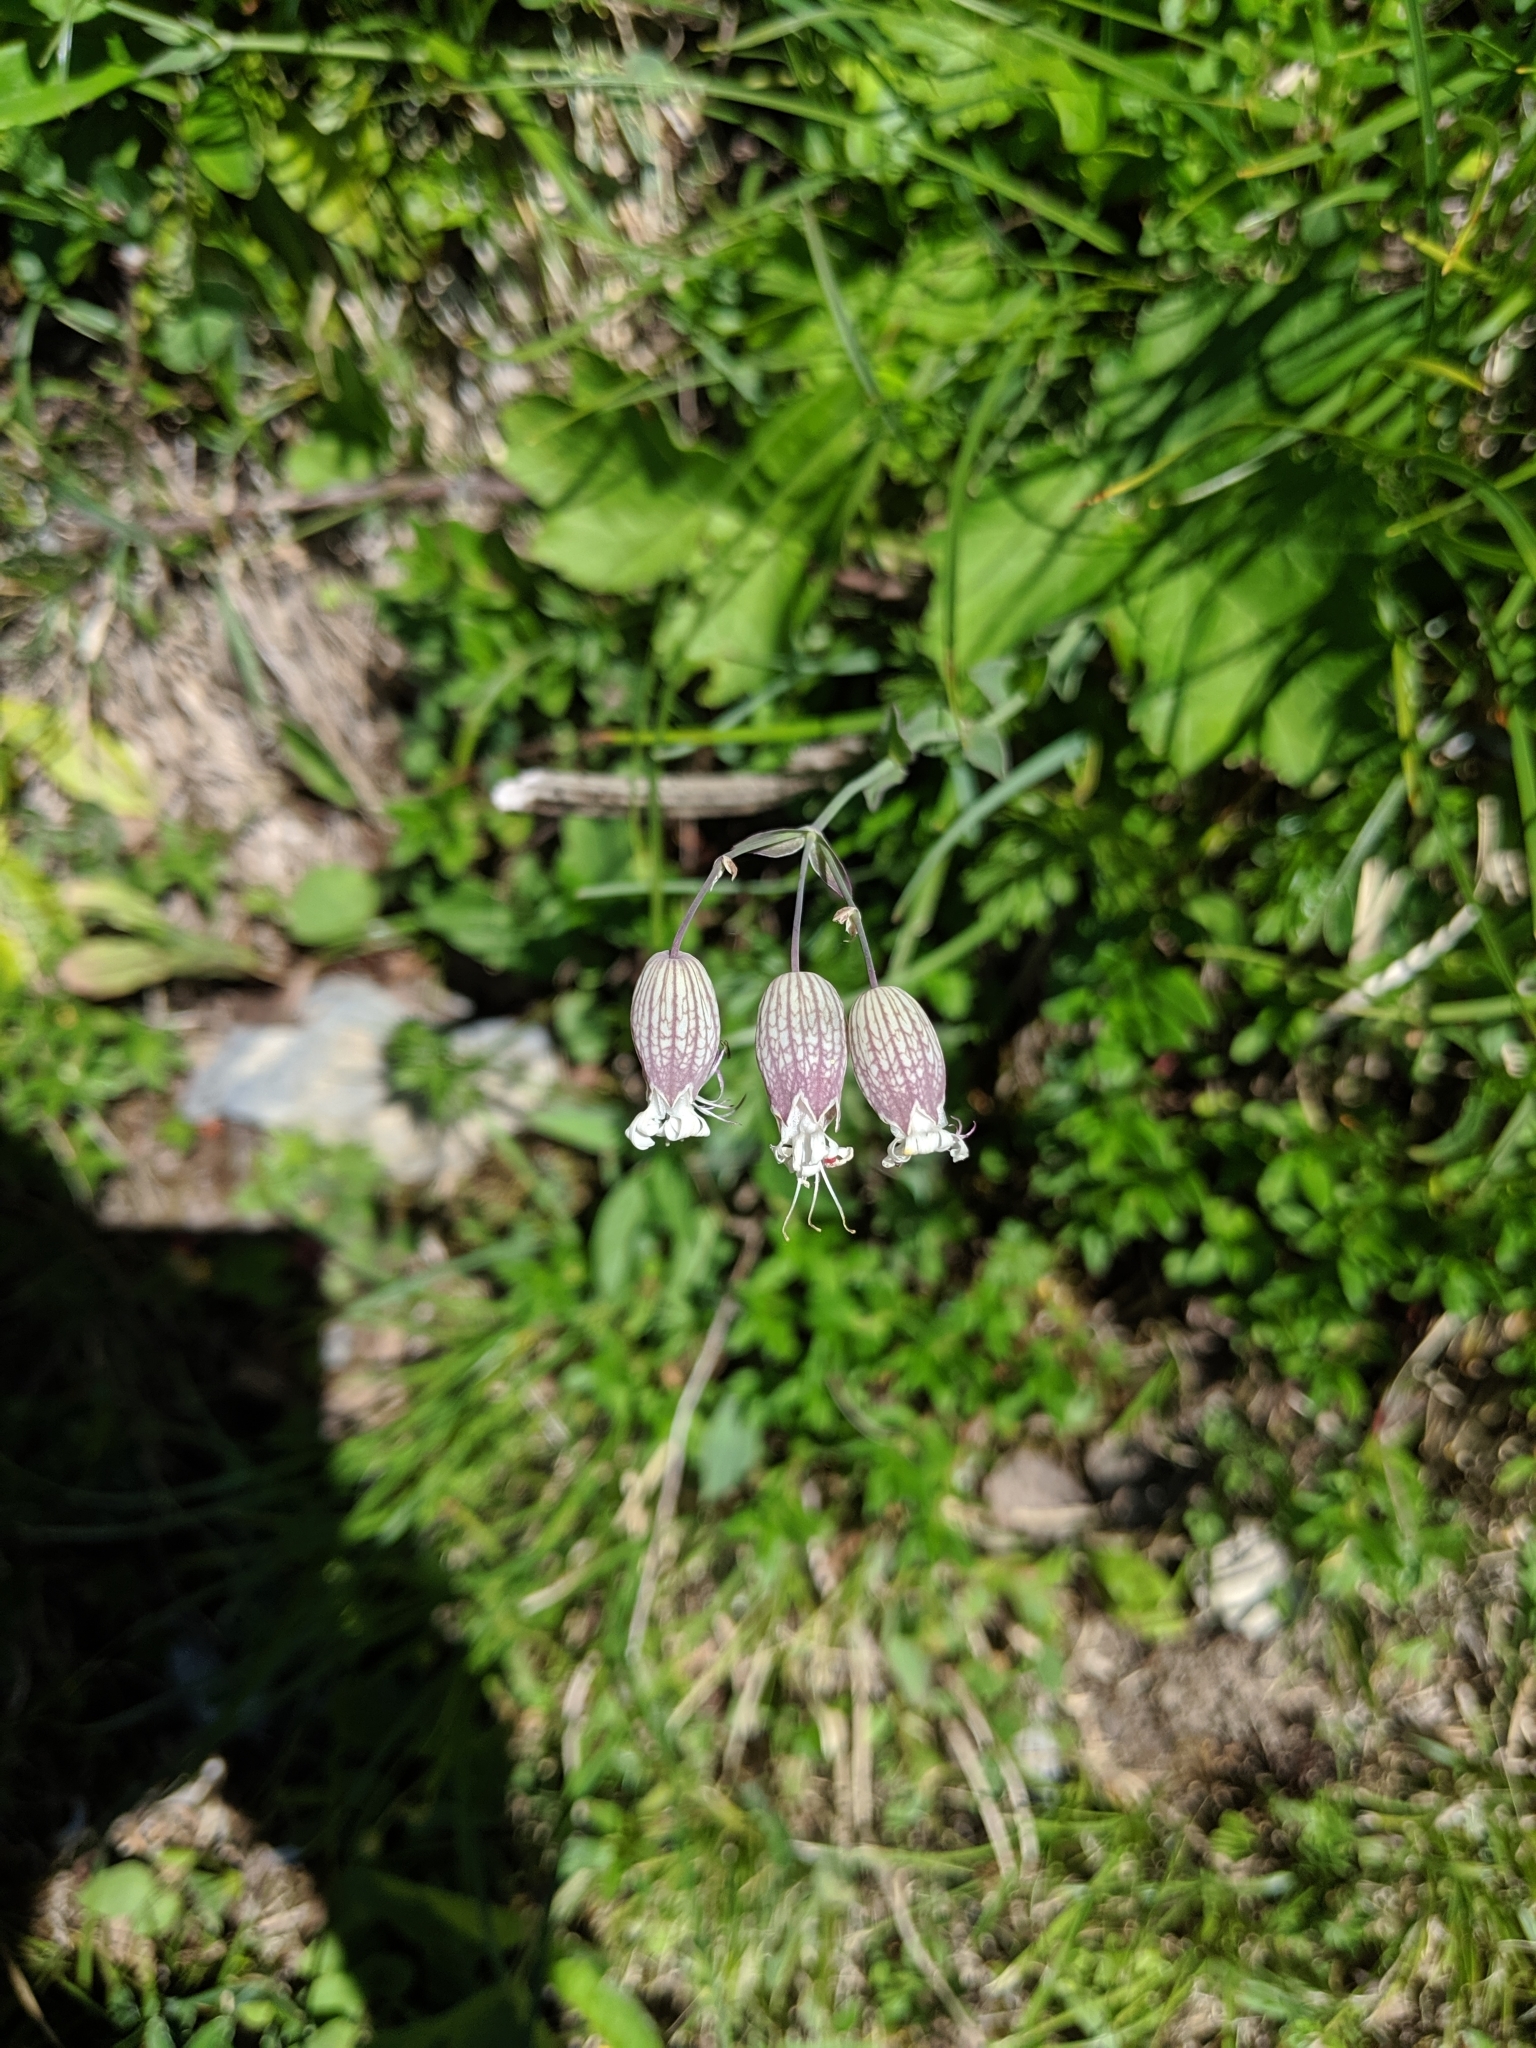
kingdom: Plantae
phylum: Tracheophyta
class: Magnoliopsida
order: Caryophyllales
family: Caryophyllaceae
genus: Silene
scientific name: Silene vulgaris
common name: Bladder campion
